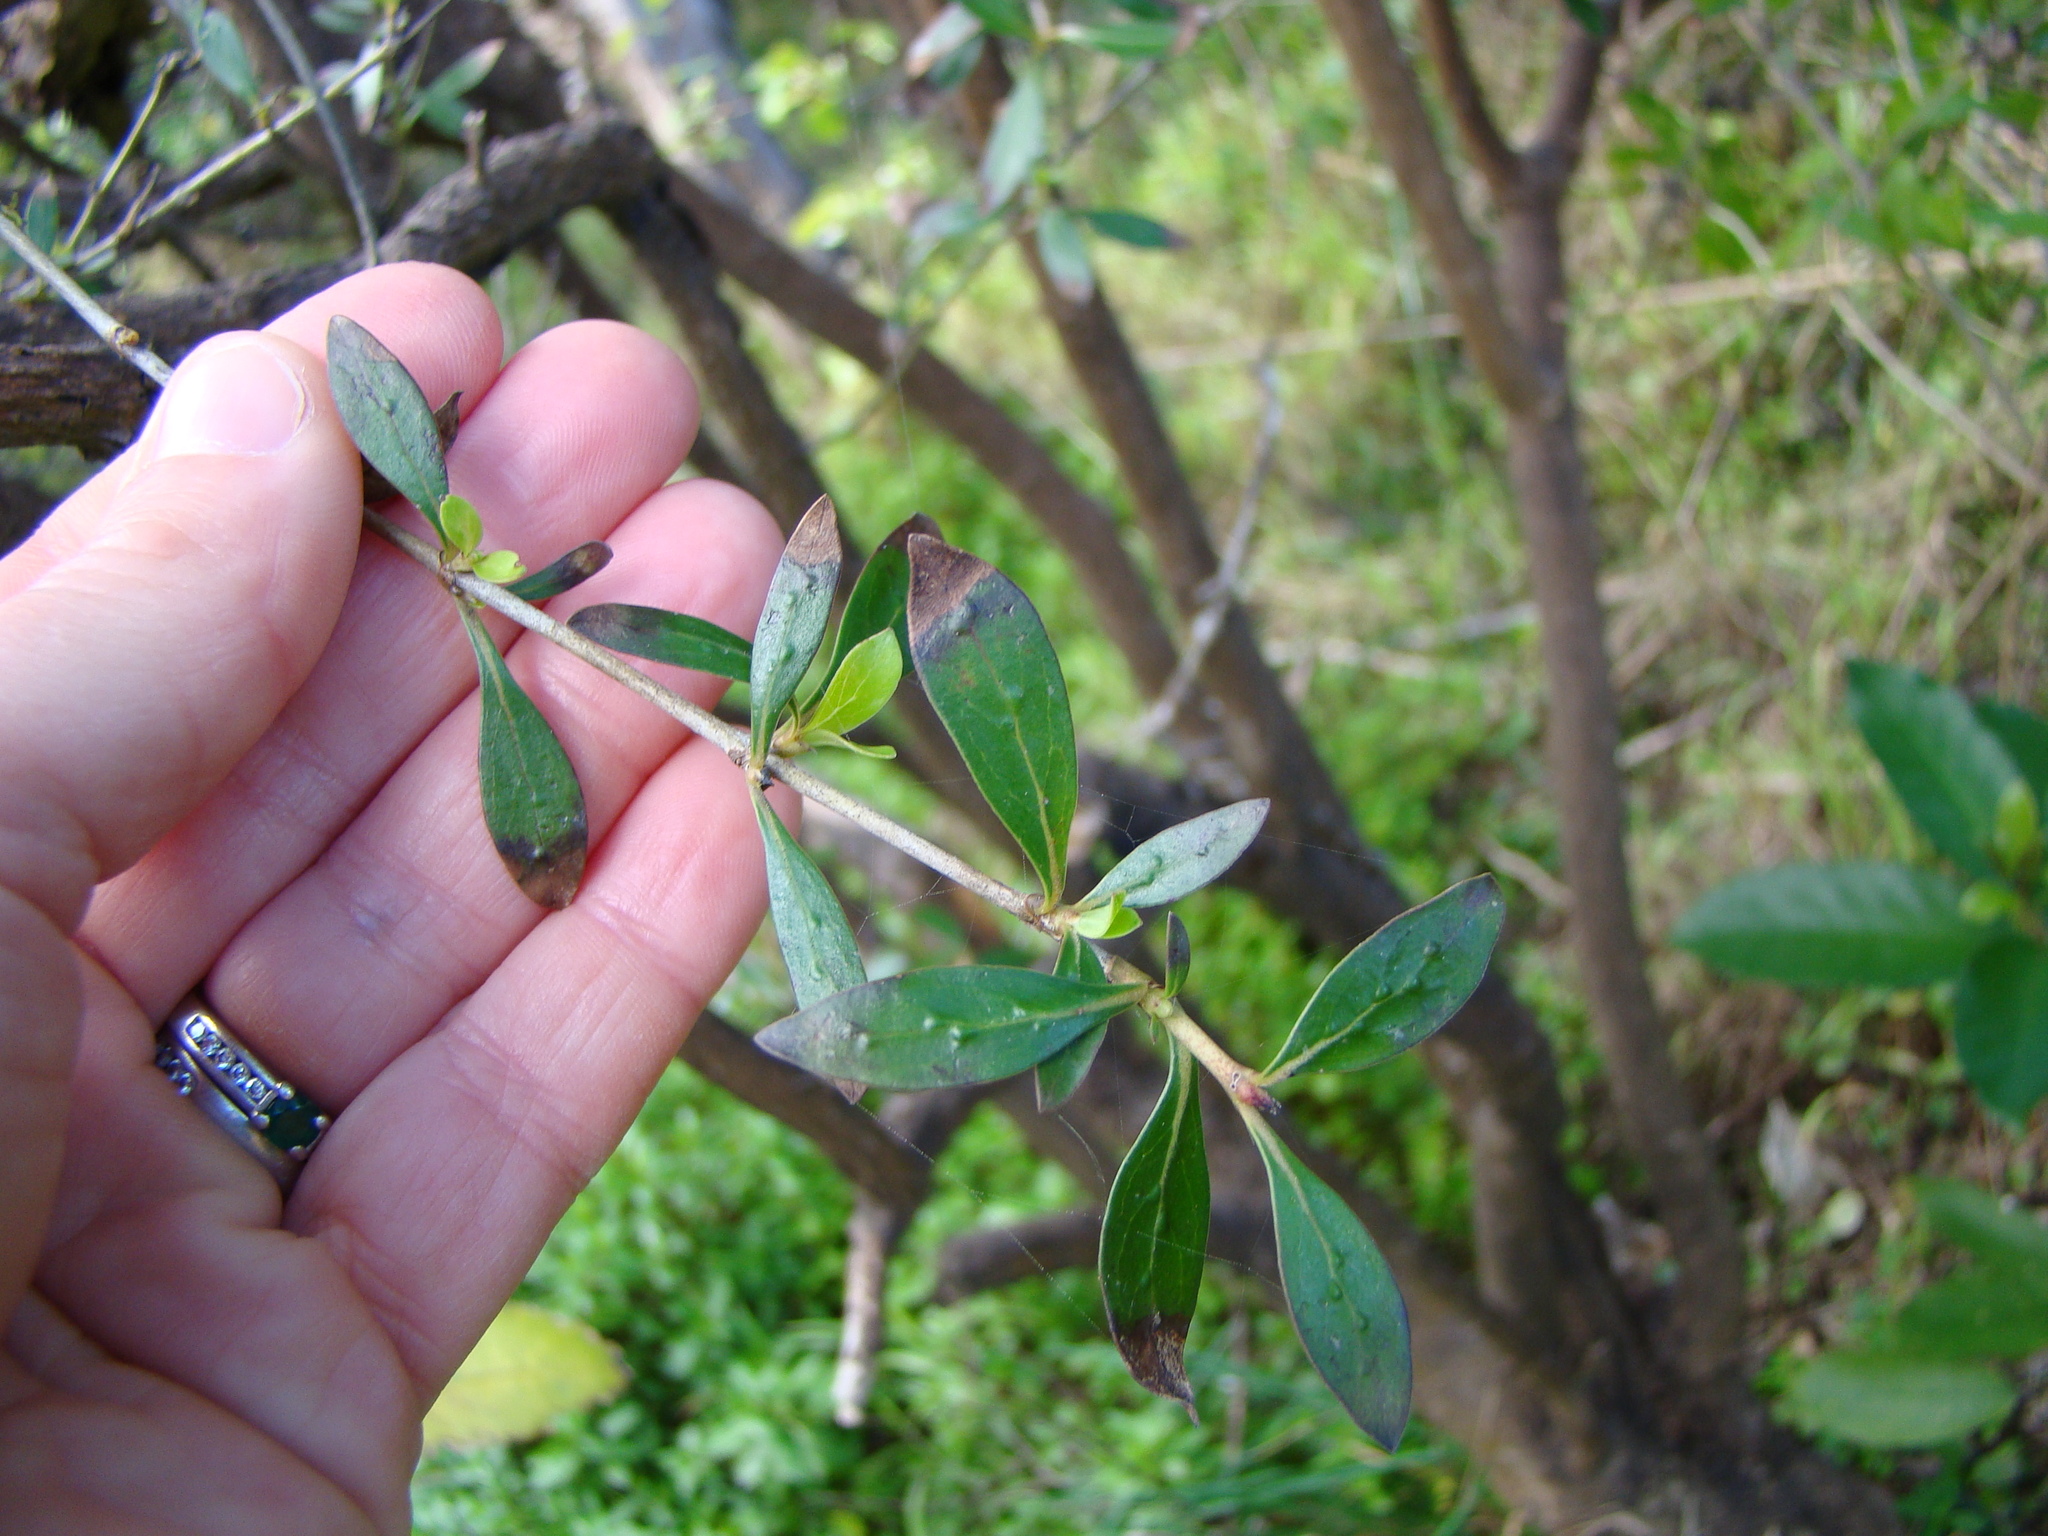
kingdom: Plantae
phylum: Tracheophyta
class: Magnoliopsida
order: Gentianales
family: Rubiaceae
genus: Coprosma
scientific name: Coprosma cunninghamii
